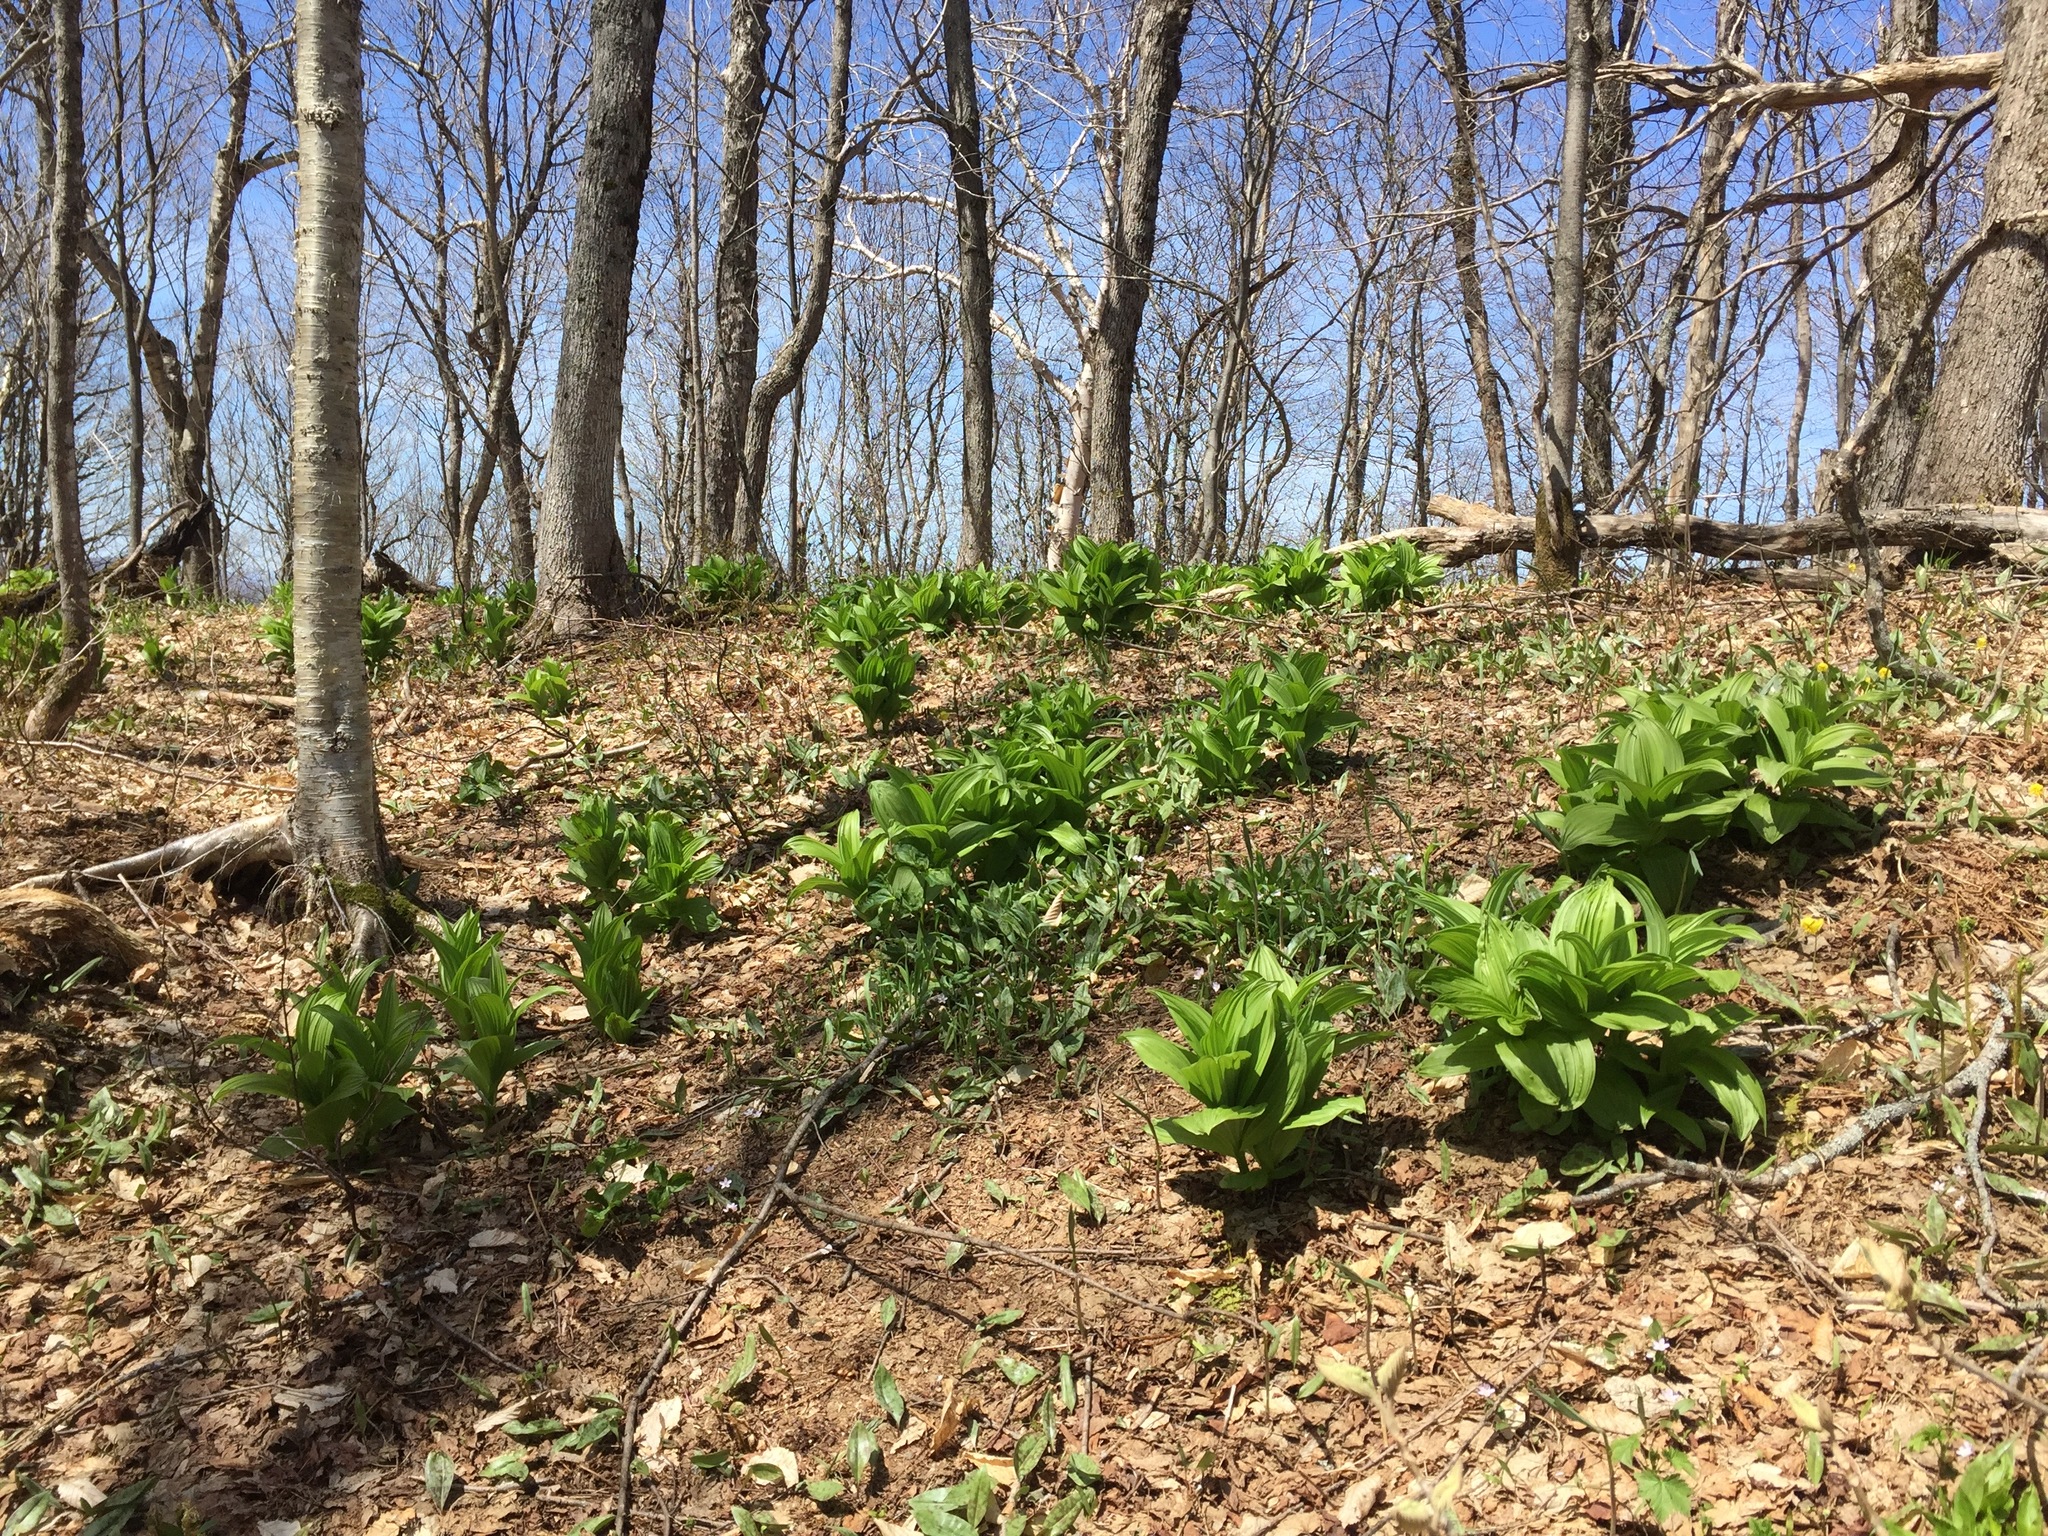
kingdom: Plantae
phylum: Tracheophyta
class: Liliopsida
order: Liliales
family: Melanthiaceae
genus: Veratrum
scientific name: Veratrum viride
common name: American false hellebore
